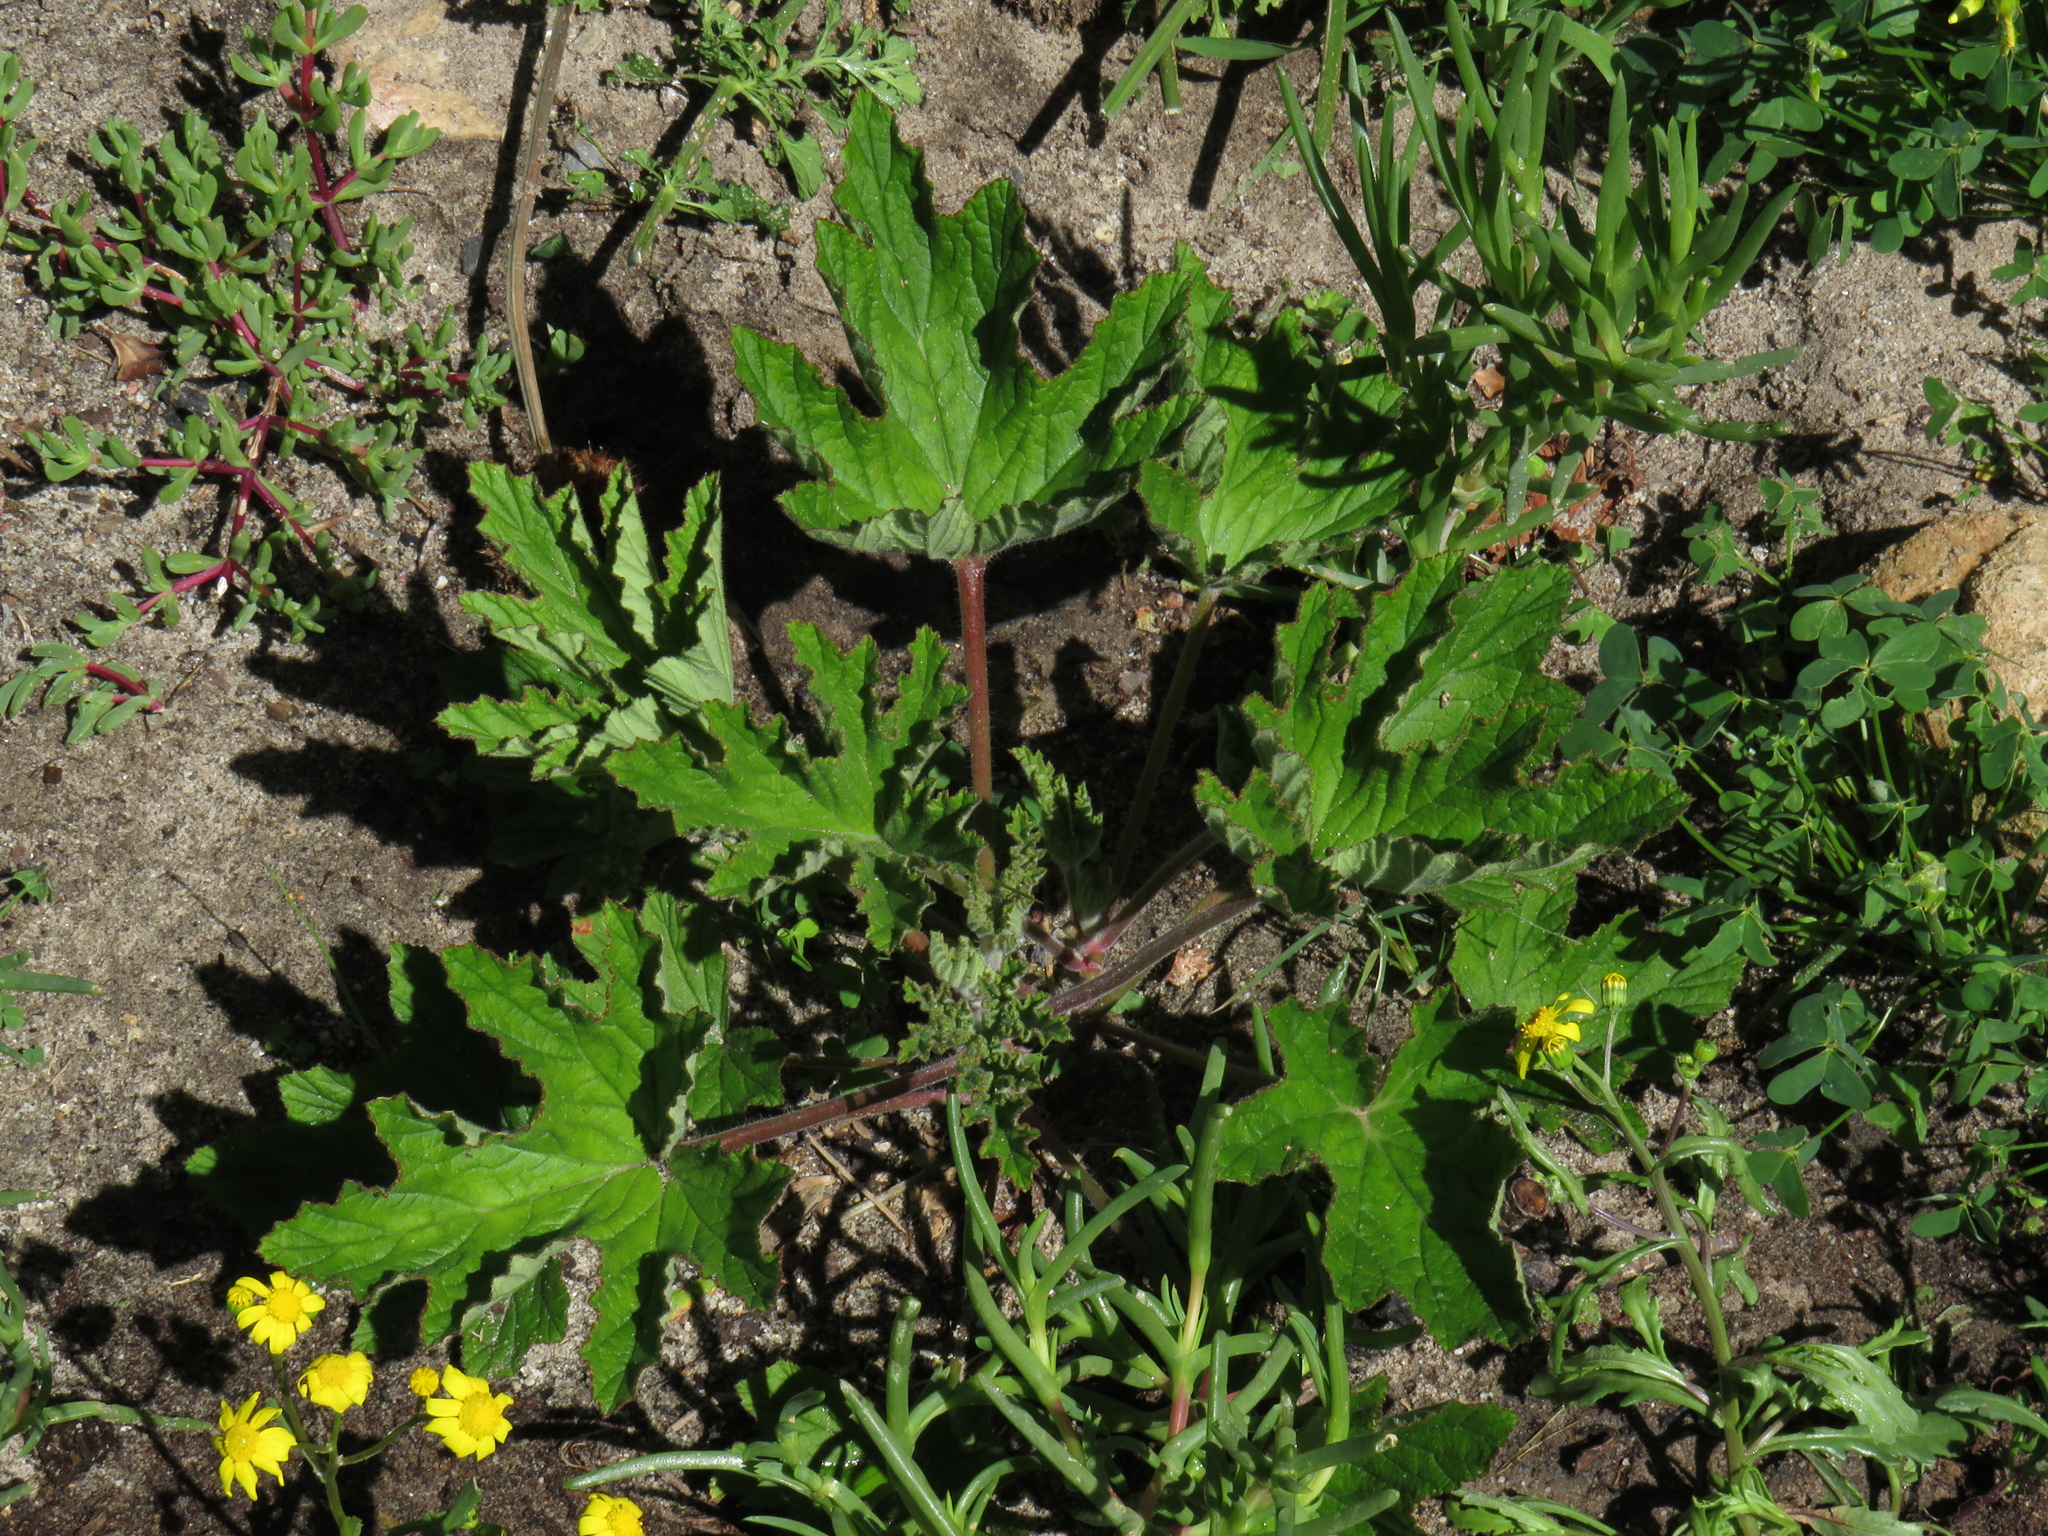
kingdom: Plantae
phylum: Tracheophyta
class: Magnoliopsida
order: Geraniales
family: Geraniaceae
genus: Pelargonium
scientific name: Pelargonium citronellum
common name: Lemon-scent pelargonium
